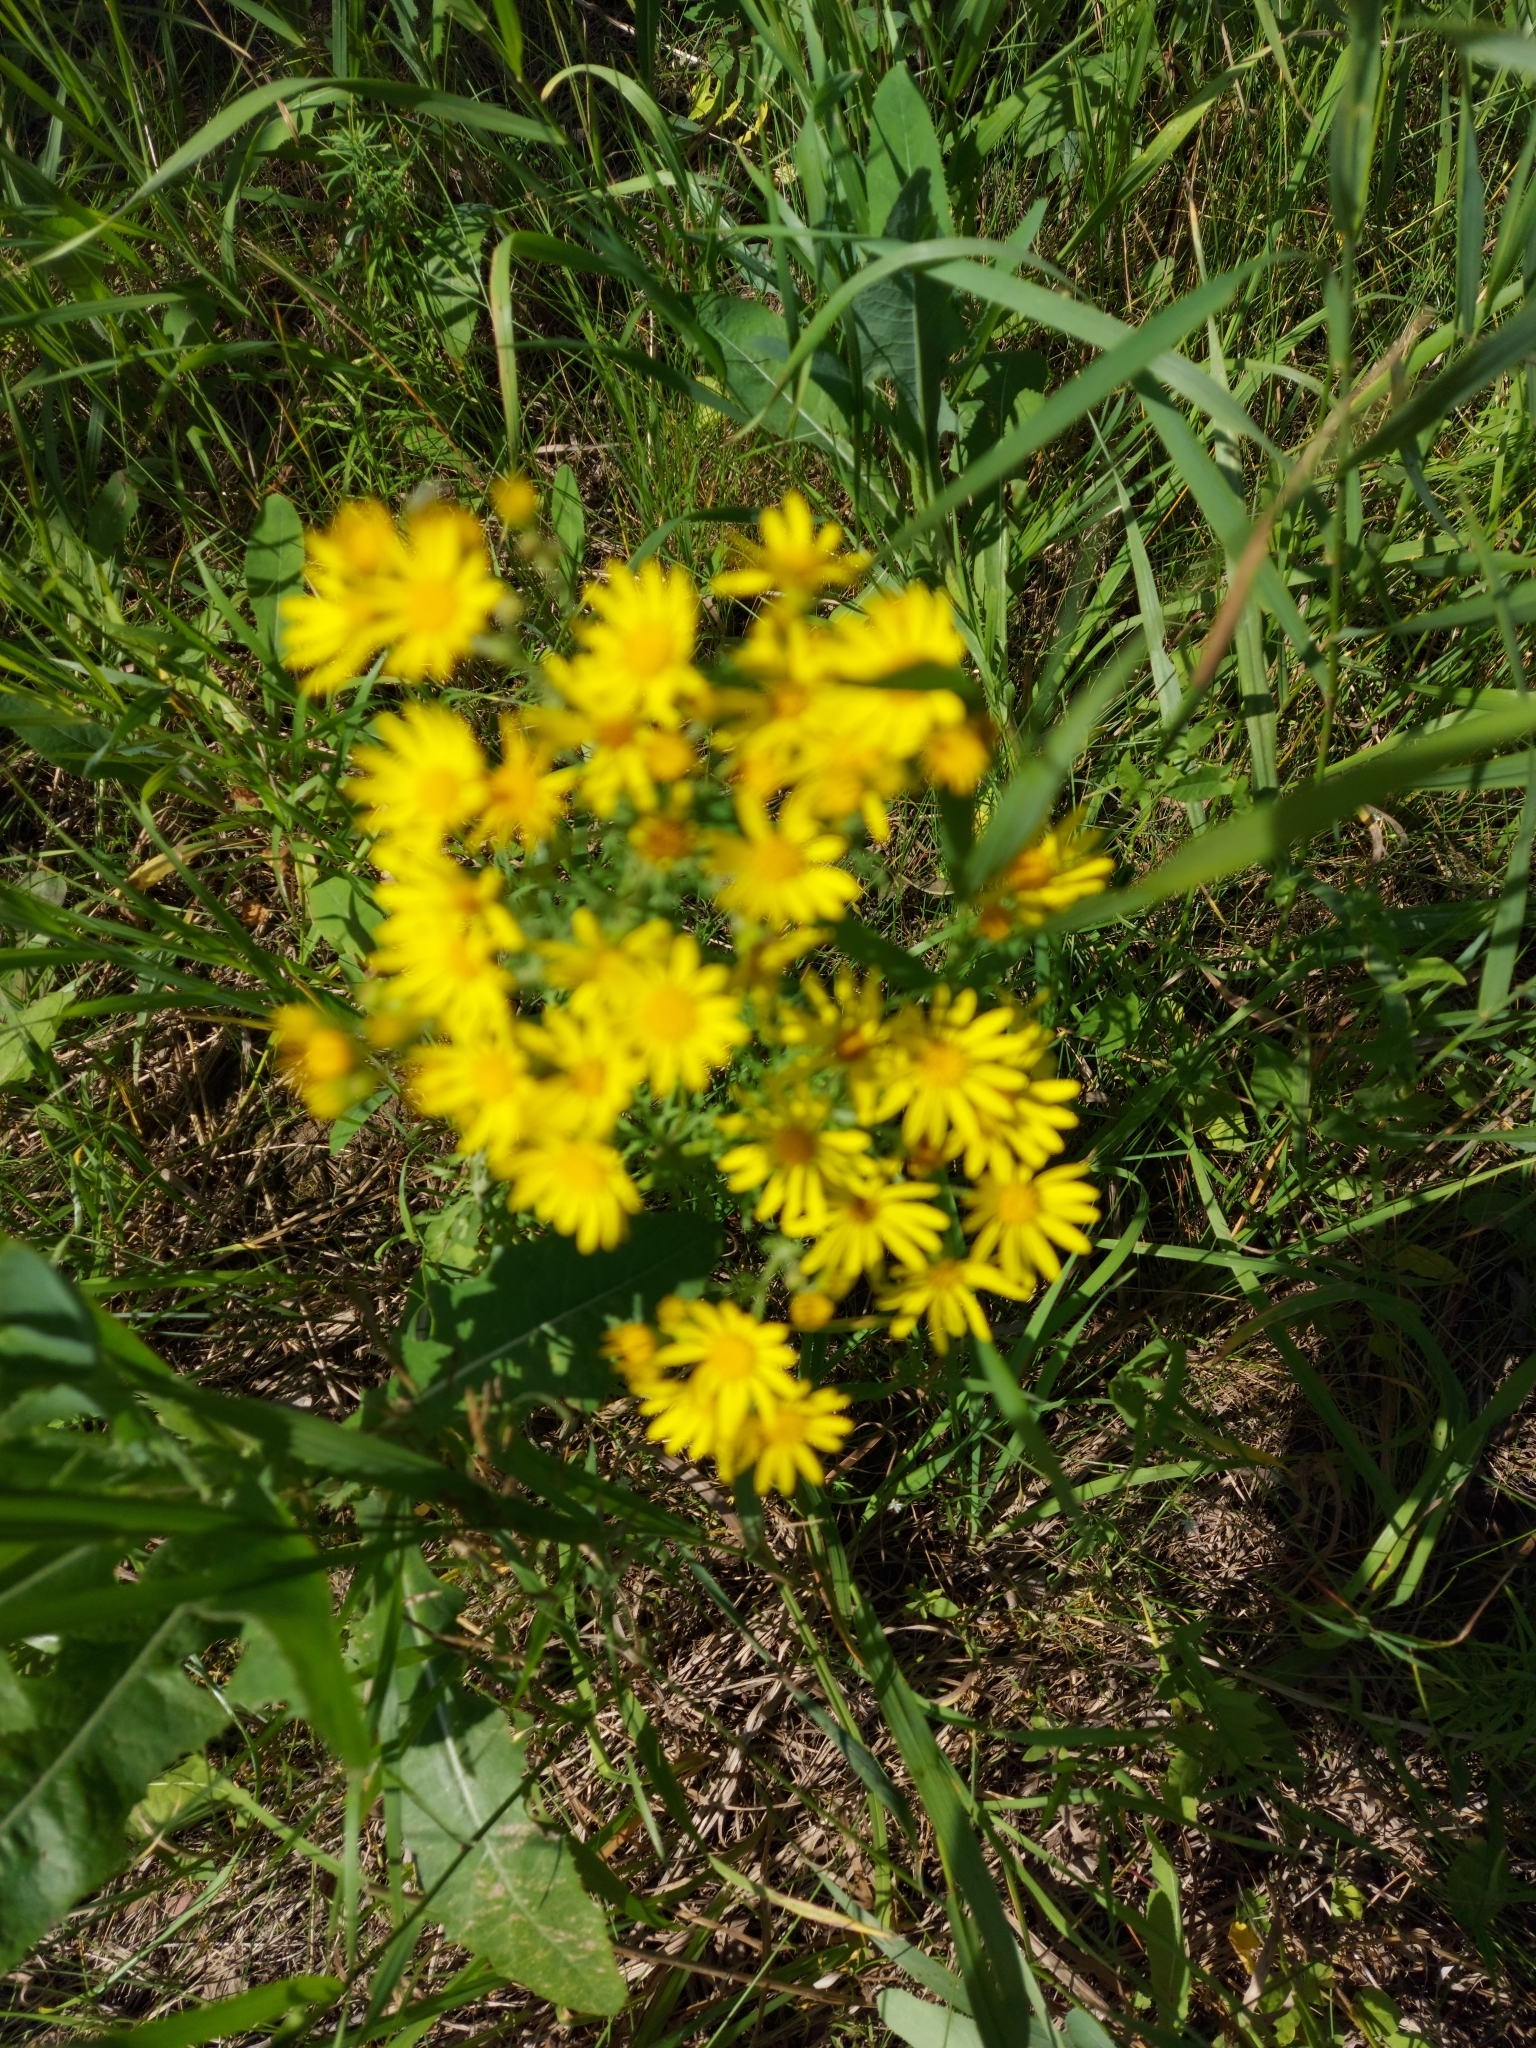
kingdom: Plantae
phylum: Tracheophyta
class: Magnoliopsida
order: Asterales
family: Asteraceae
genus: Jacobaea
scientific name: Jacobaea vulgaris
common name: Stinking willie
